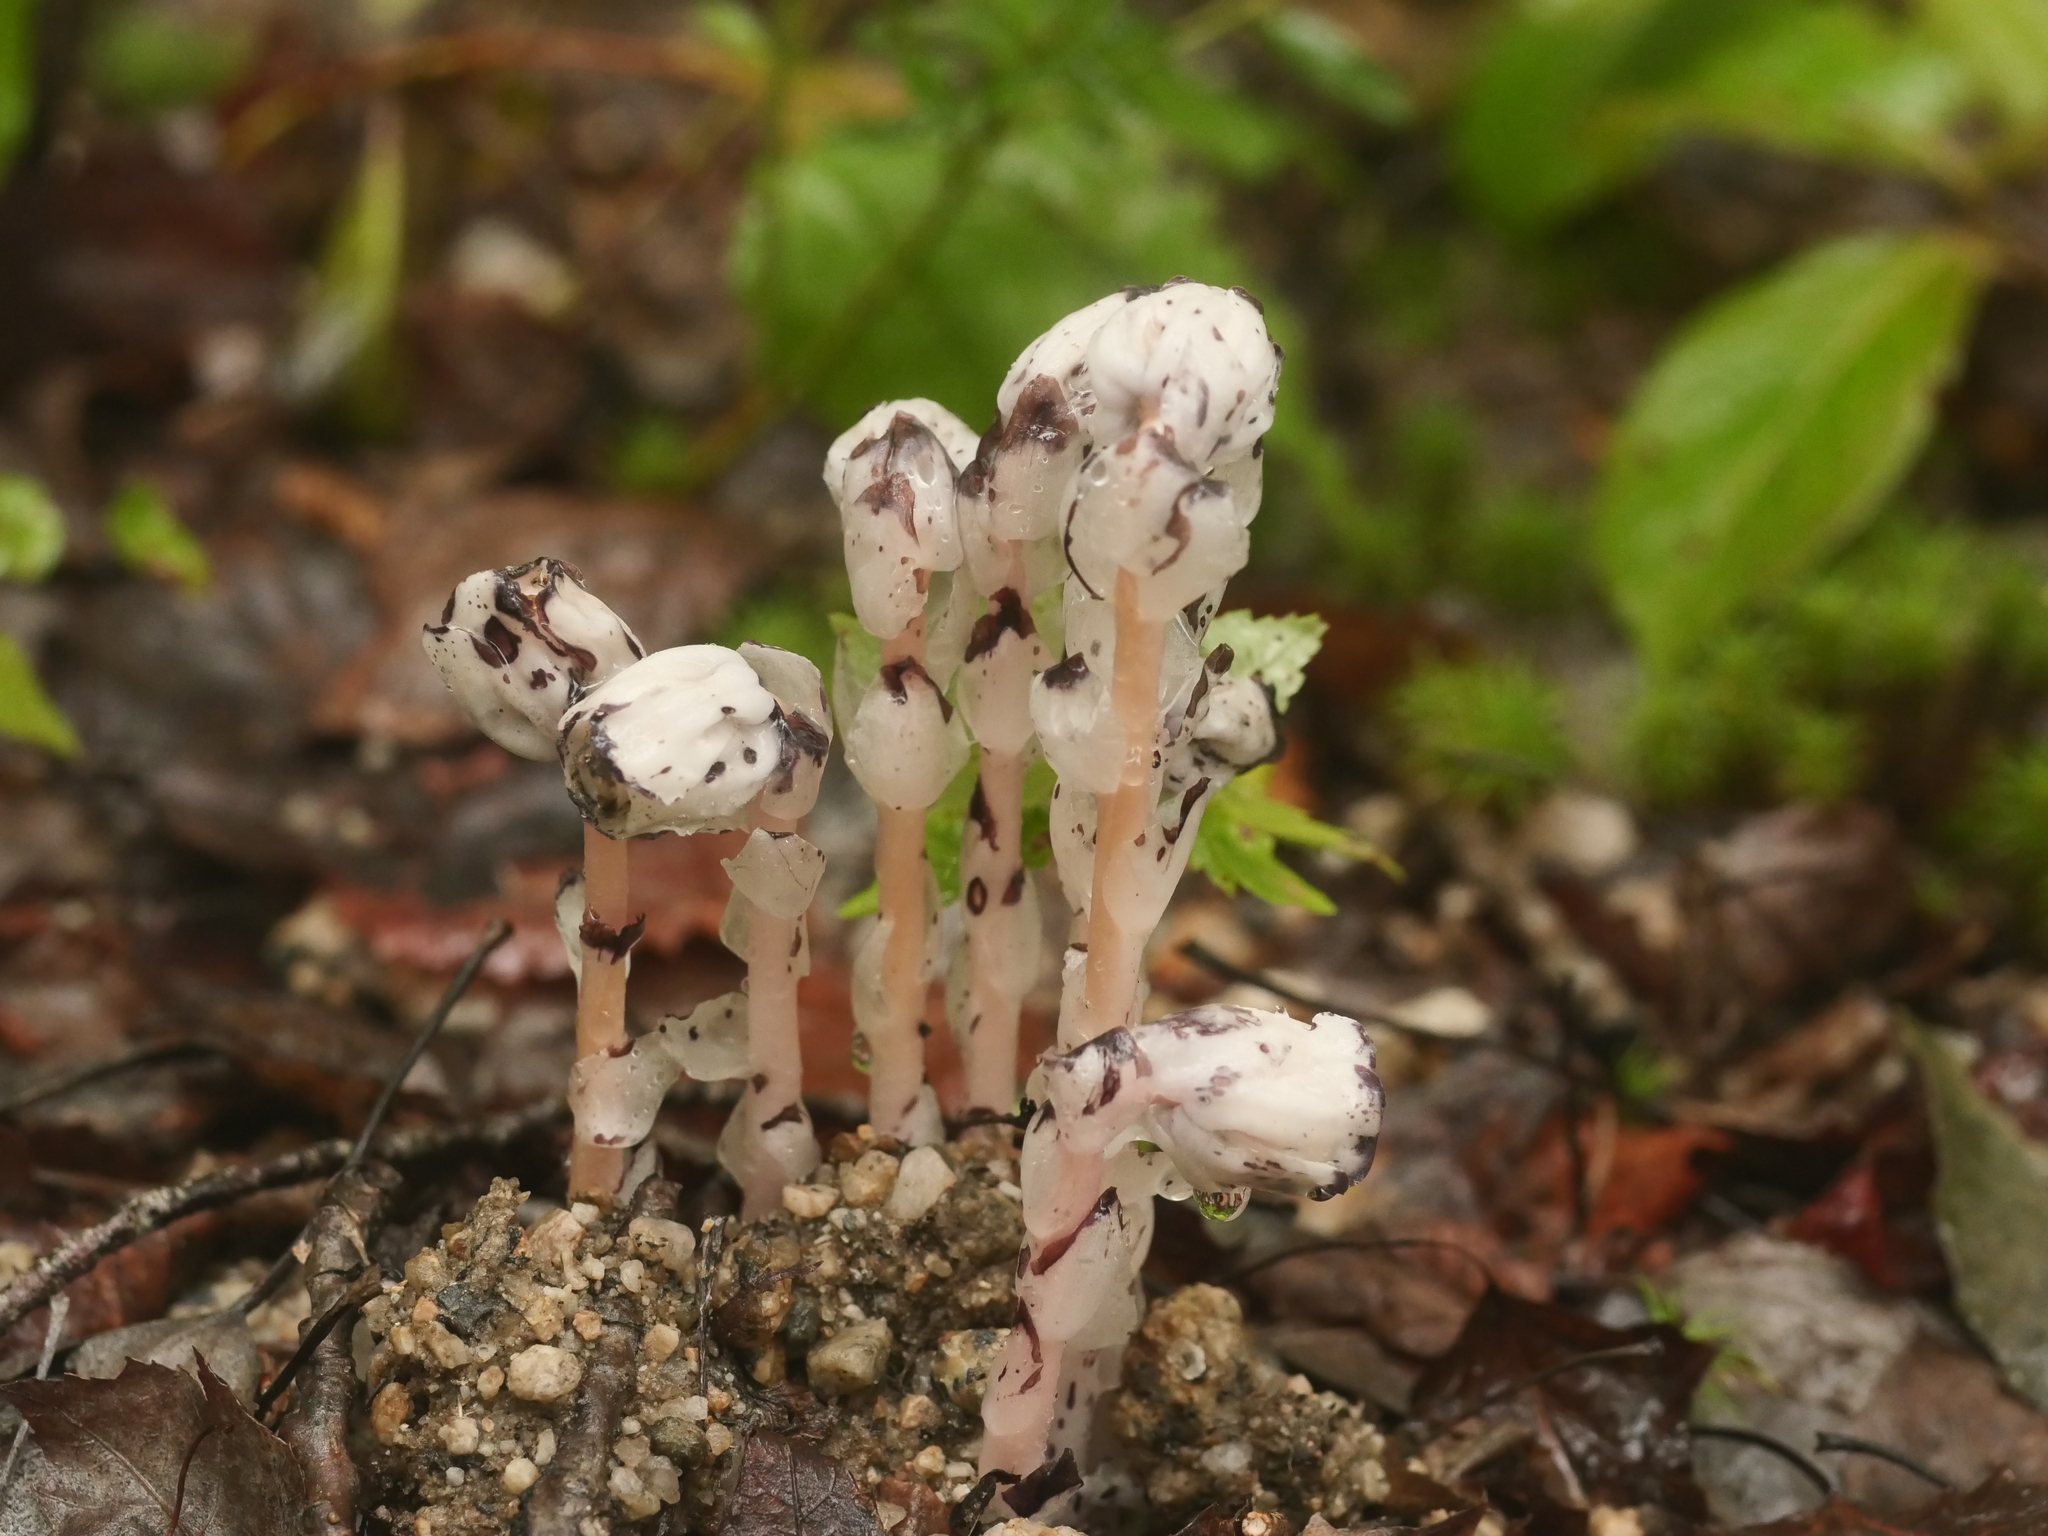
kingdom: Plantae
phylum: Tracheophyta
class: Magnoliopsida
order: Ericales
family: Ericaceae
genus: Monotropa
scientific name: Monotropa uniflora
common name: Convulsion root
